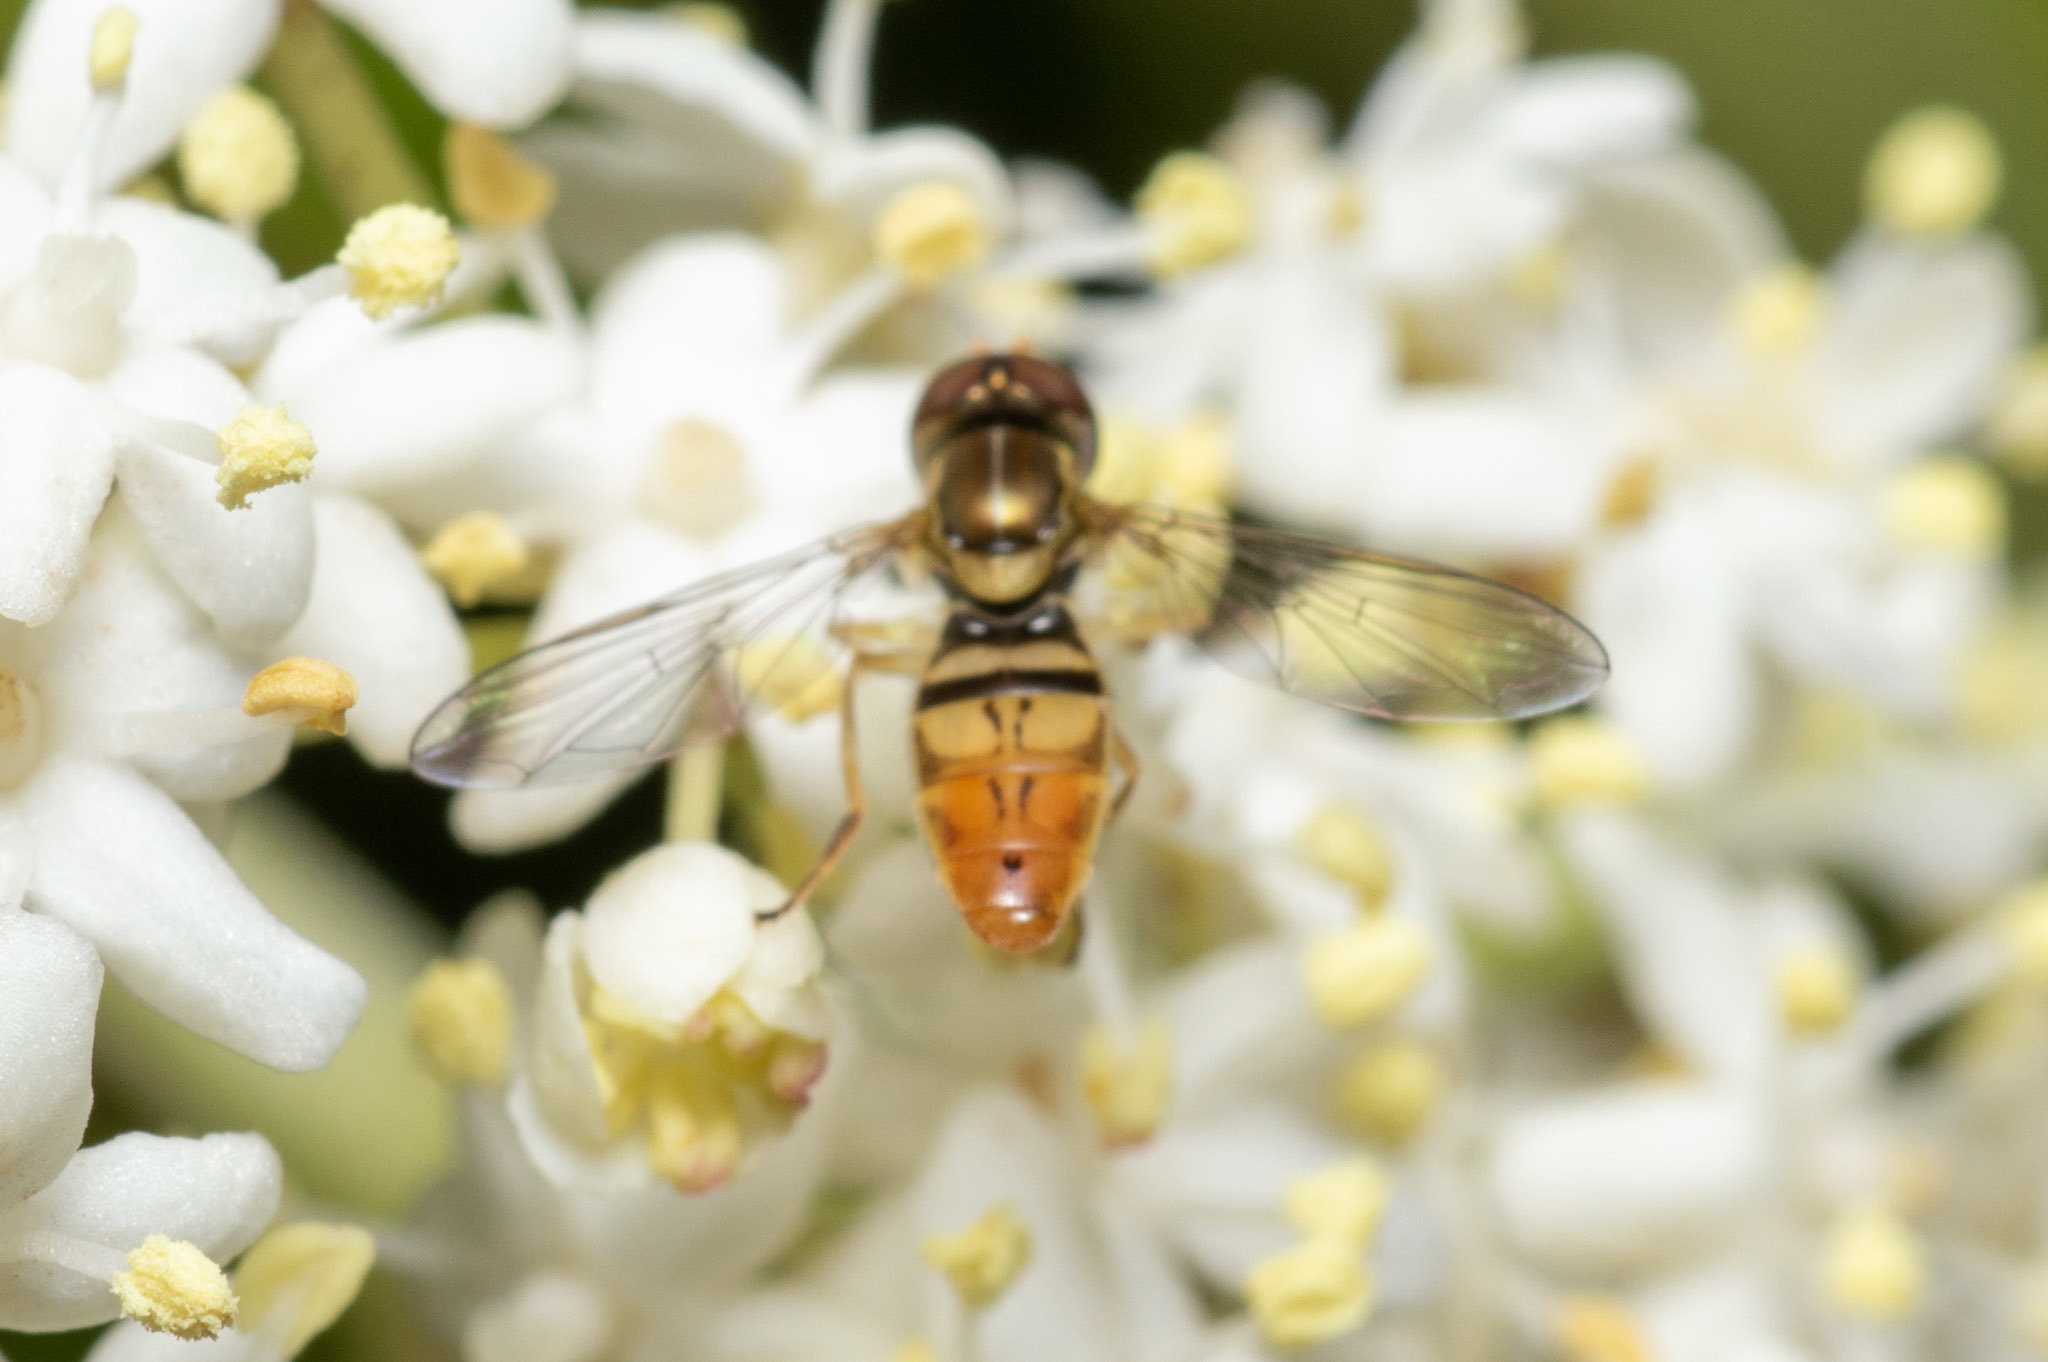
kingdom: Animalia
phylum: Arthropoda
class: Insecta
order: Diptera
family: Syrphidae
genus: Toxomerus
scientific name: Toxomerus marginatus
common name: Syrphid fly
